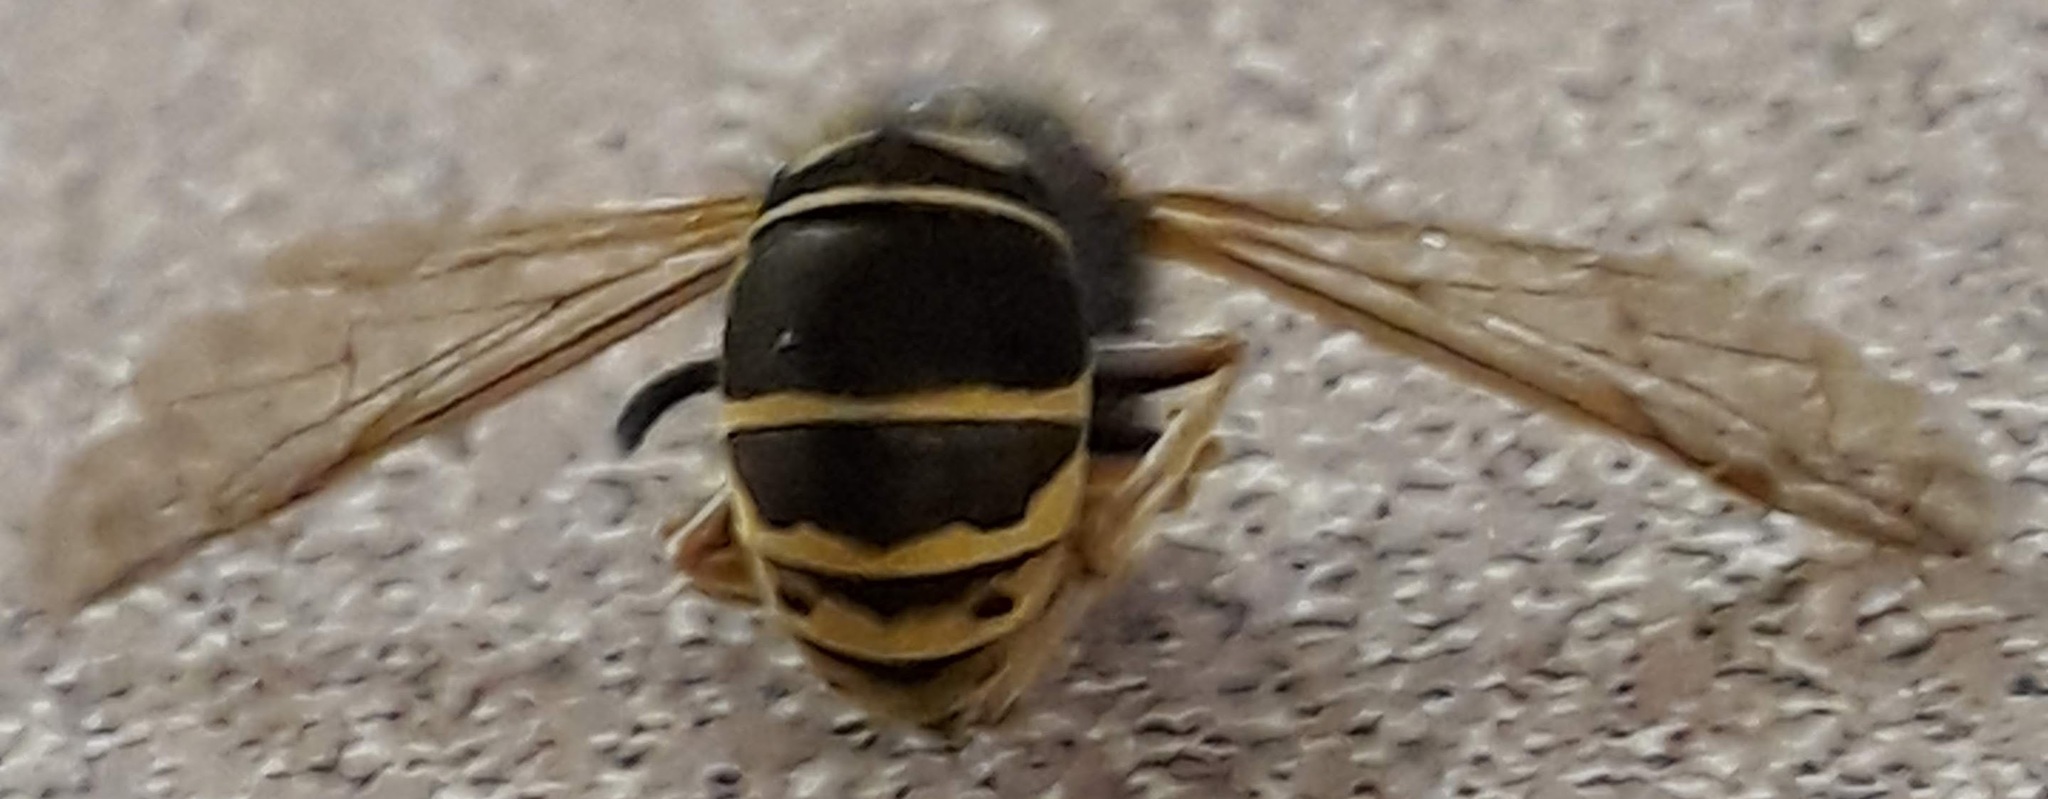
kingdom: Animalia
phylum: Arthropoda
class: Insecta
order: Hymenoptera
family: Vespidae
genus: Vespula
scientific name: Vespula vidua
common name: Widow yellowjacket
